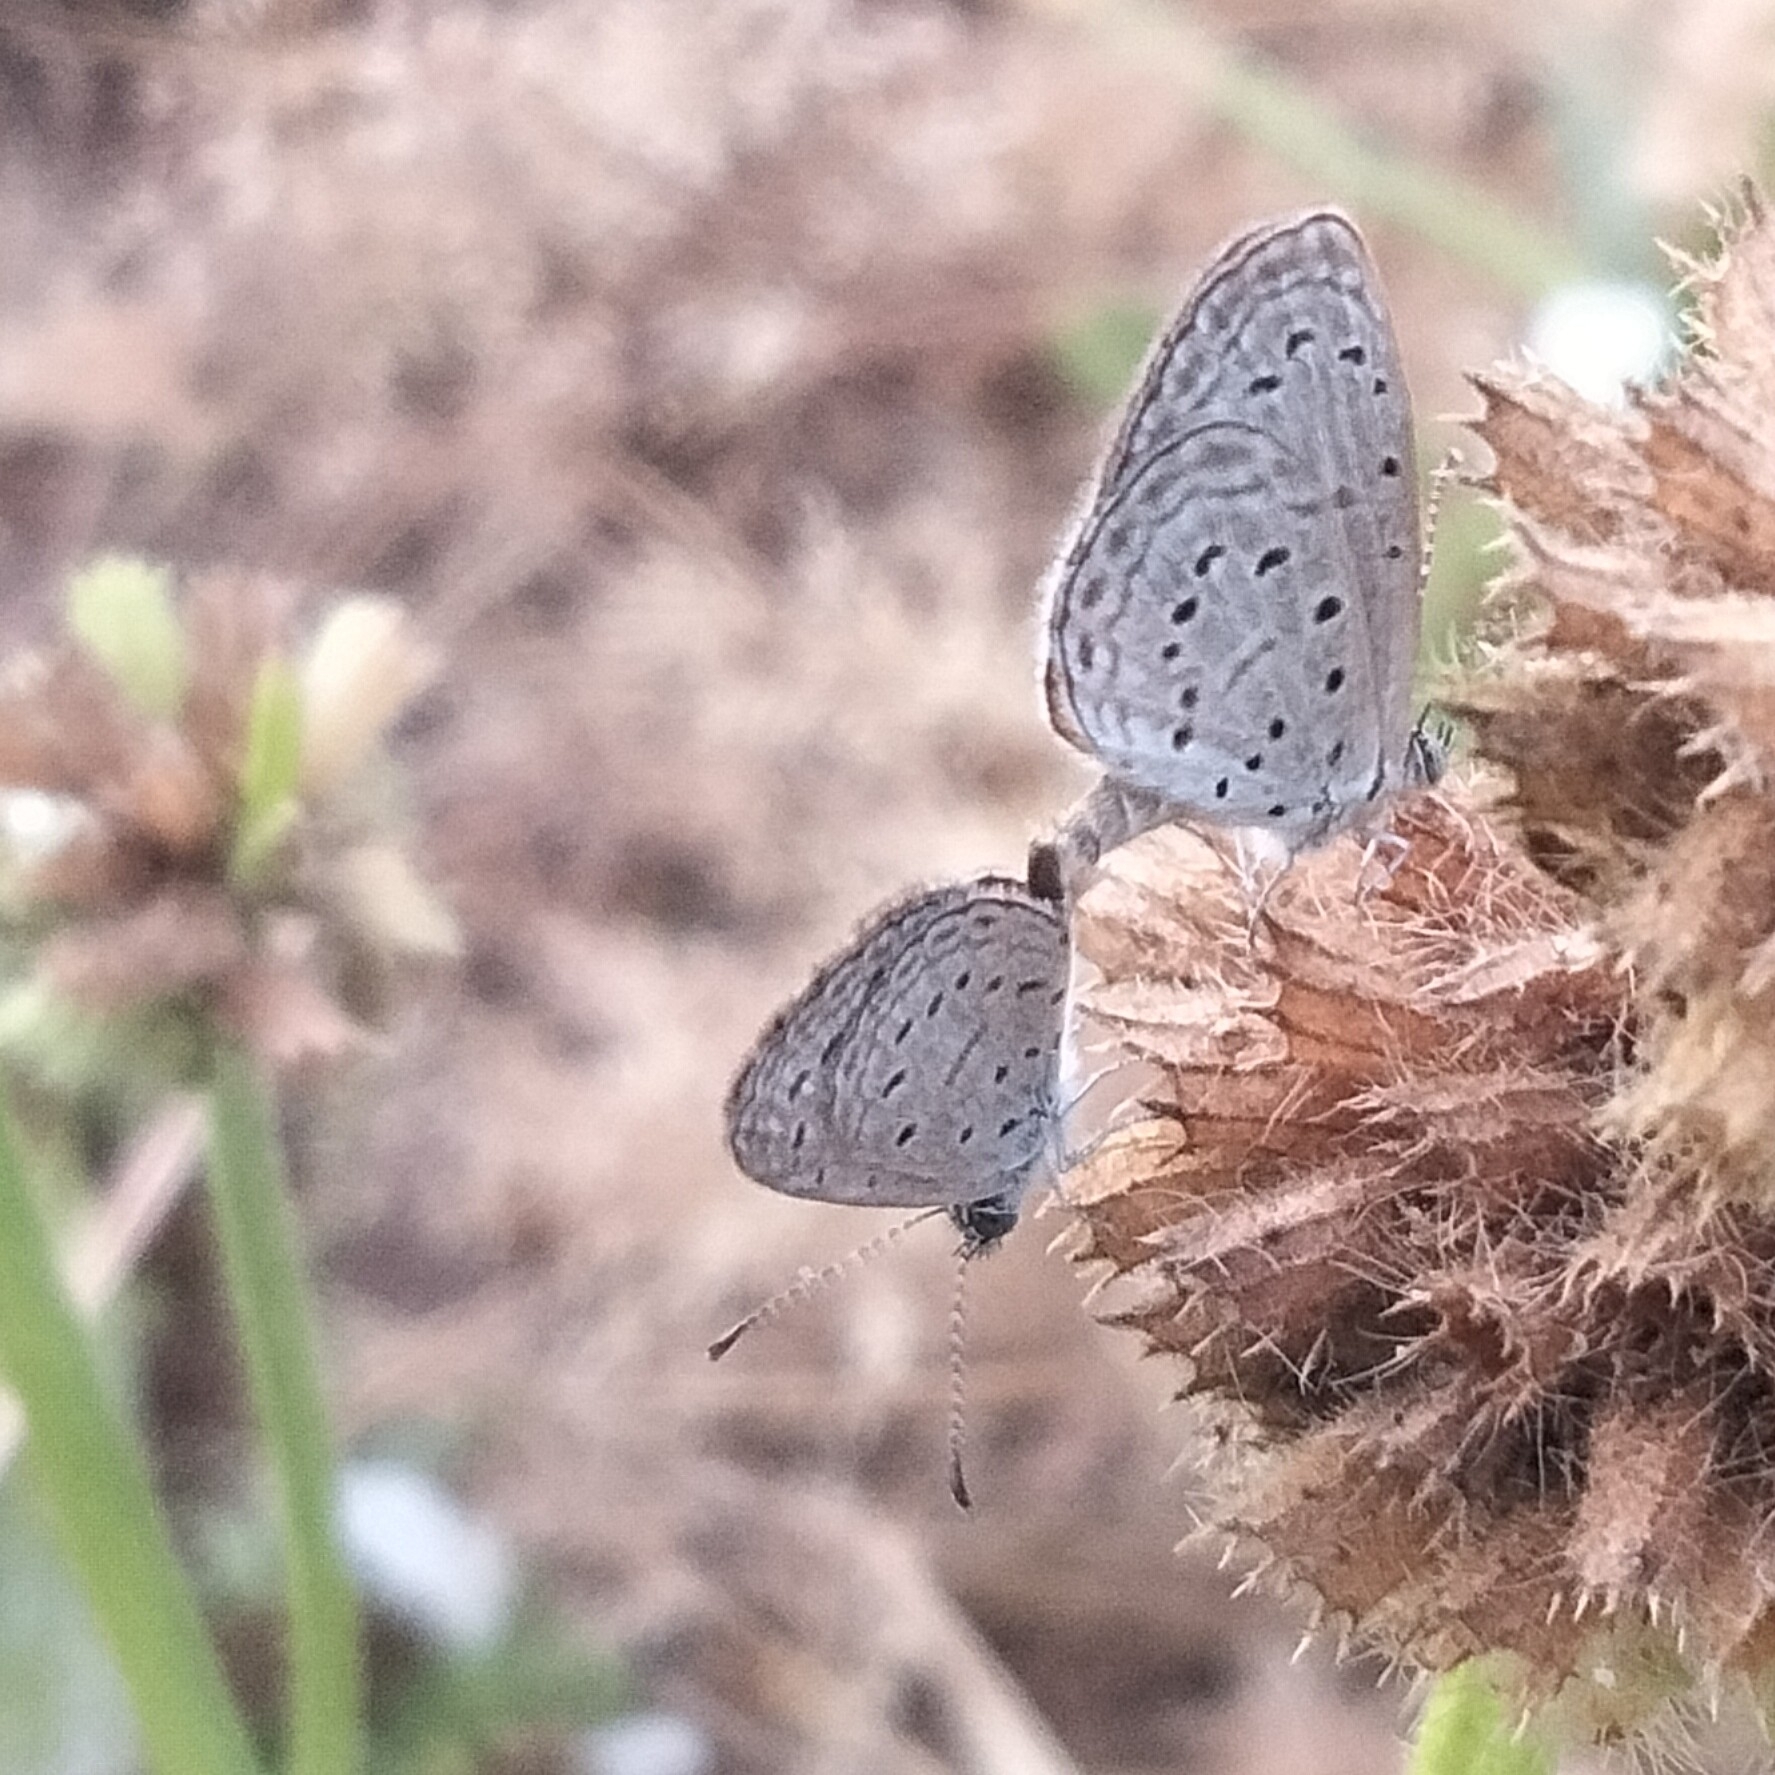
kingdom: Animalia
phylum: Arthropoda
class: Insecta
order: Lepidoptera
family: Lycaenidae
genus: Zizula
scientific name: Zizula hylax
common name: Gaika blue
